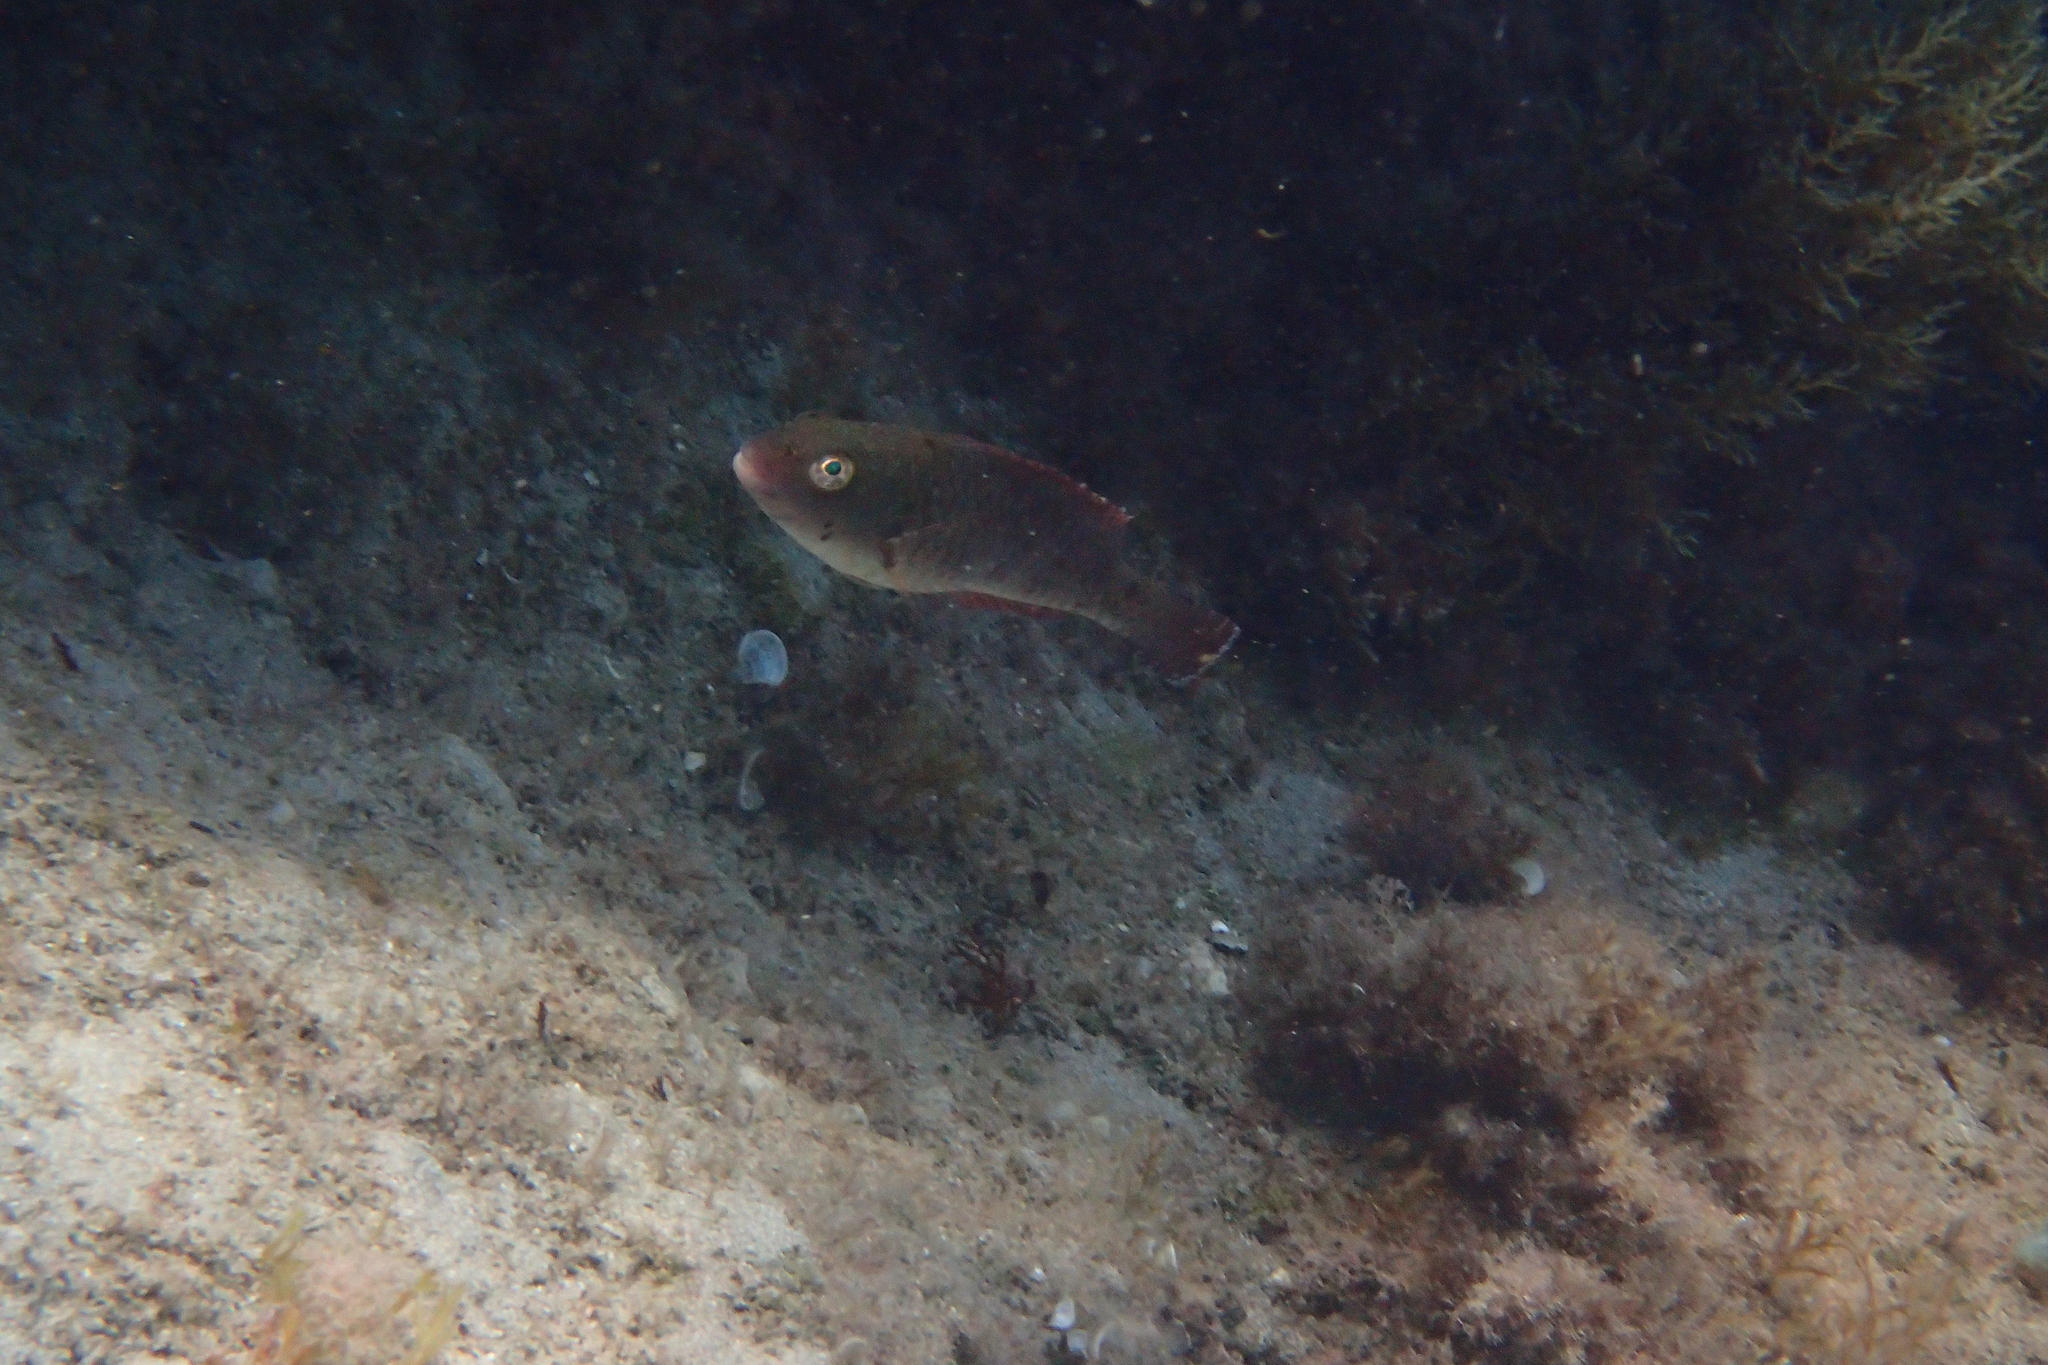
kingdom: Animalia
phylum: Chordata
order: Perciformes
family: Scaridae
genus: Sparisoma
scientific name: Sparisoma cretense
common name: Parrotfish
